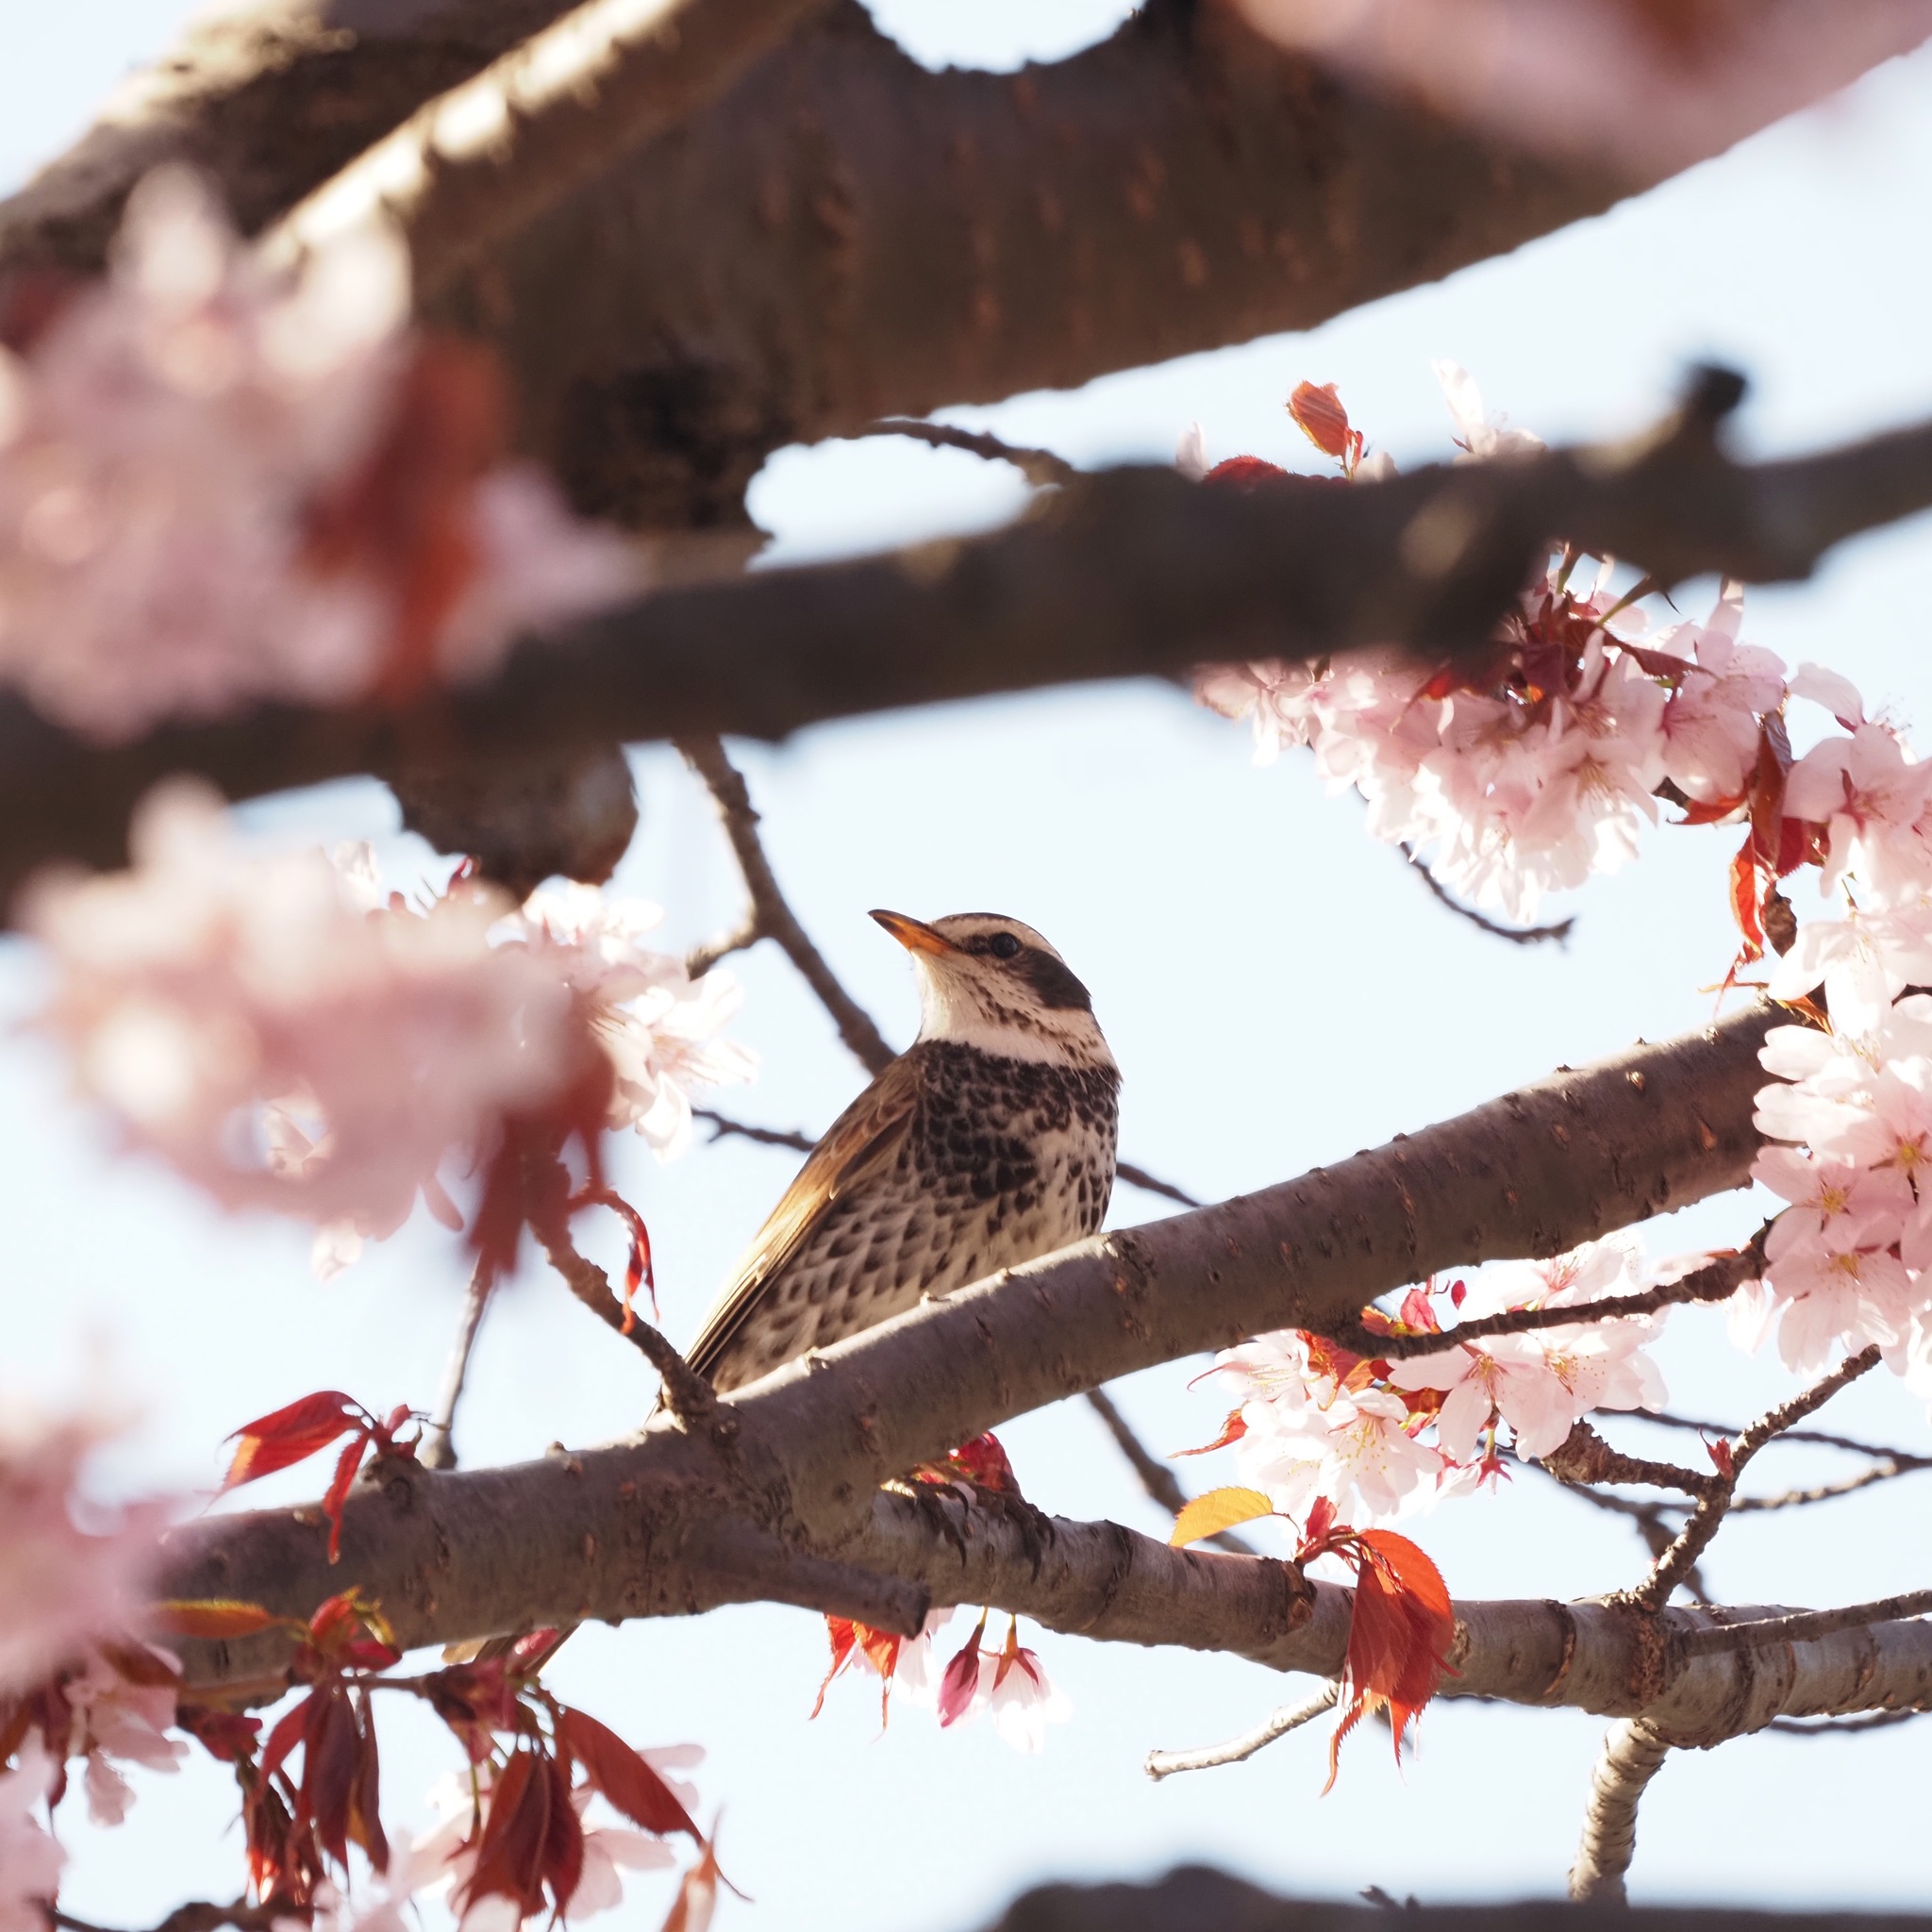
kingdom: Animalia
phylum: Chordata
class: Aves
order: Passeriformes
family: Turdidae
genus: Turdus
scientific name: Turdus eunomus
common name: Dusky thrush
